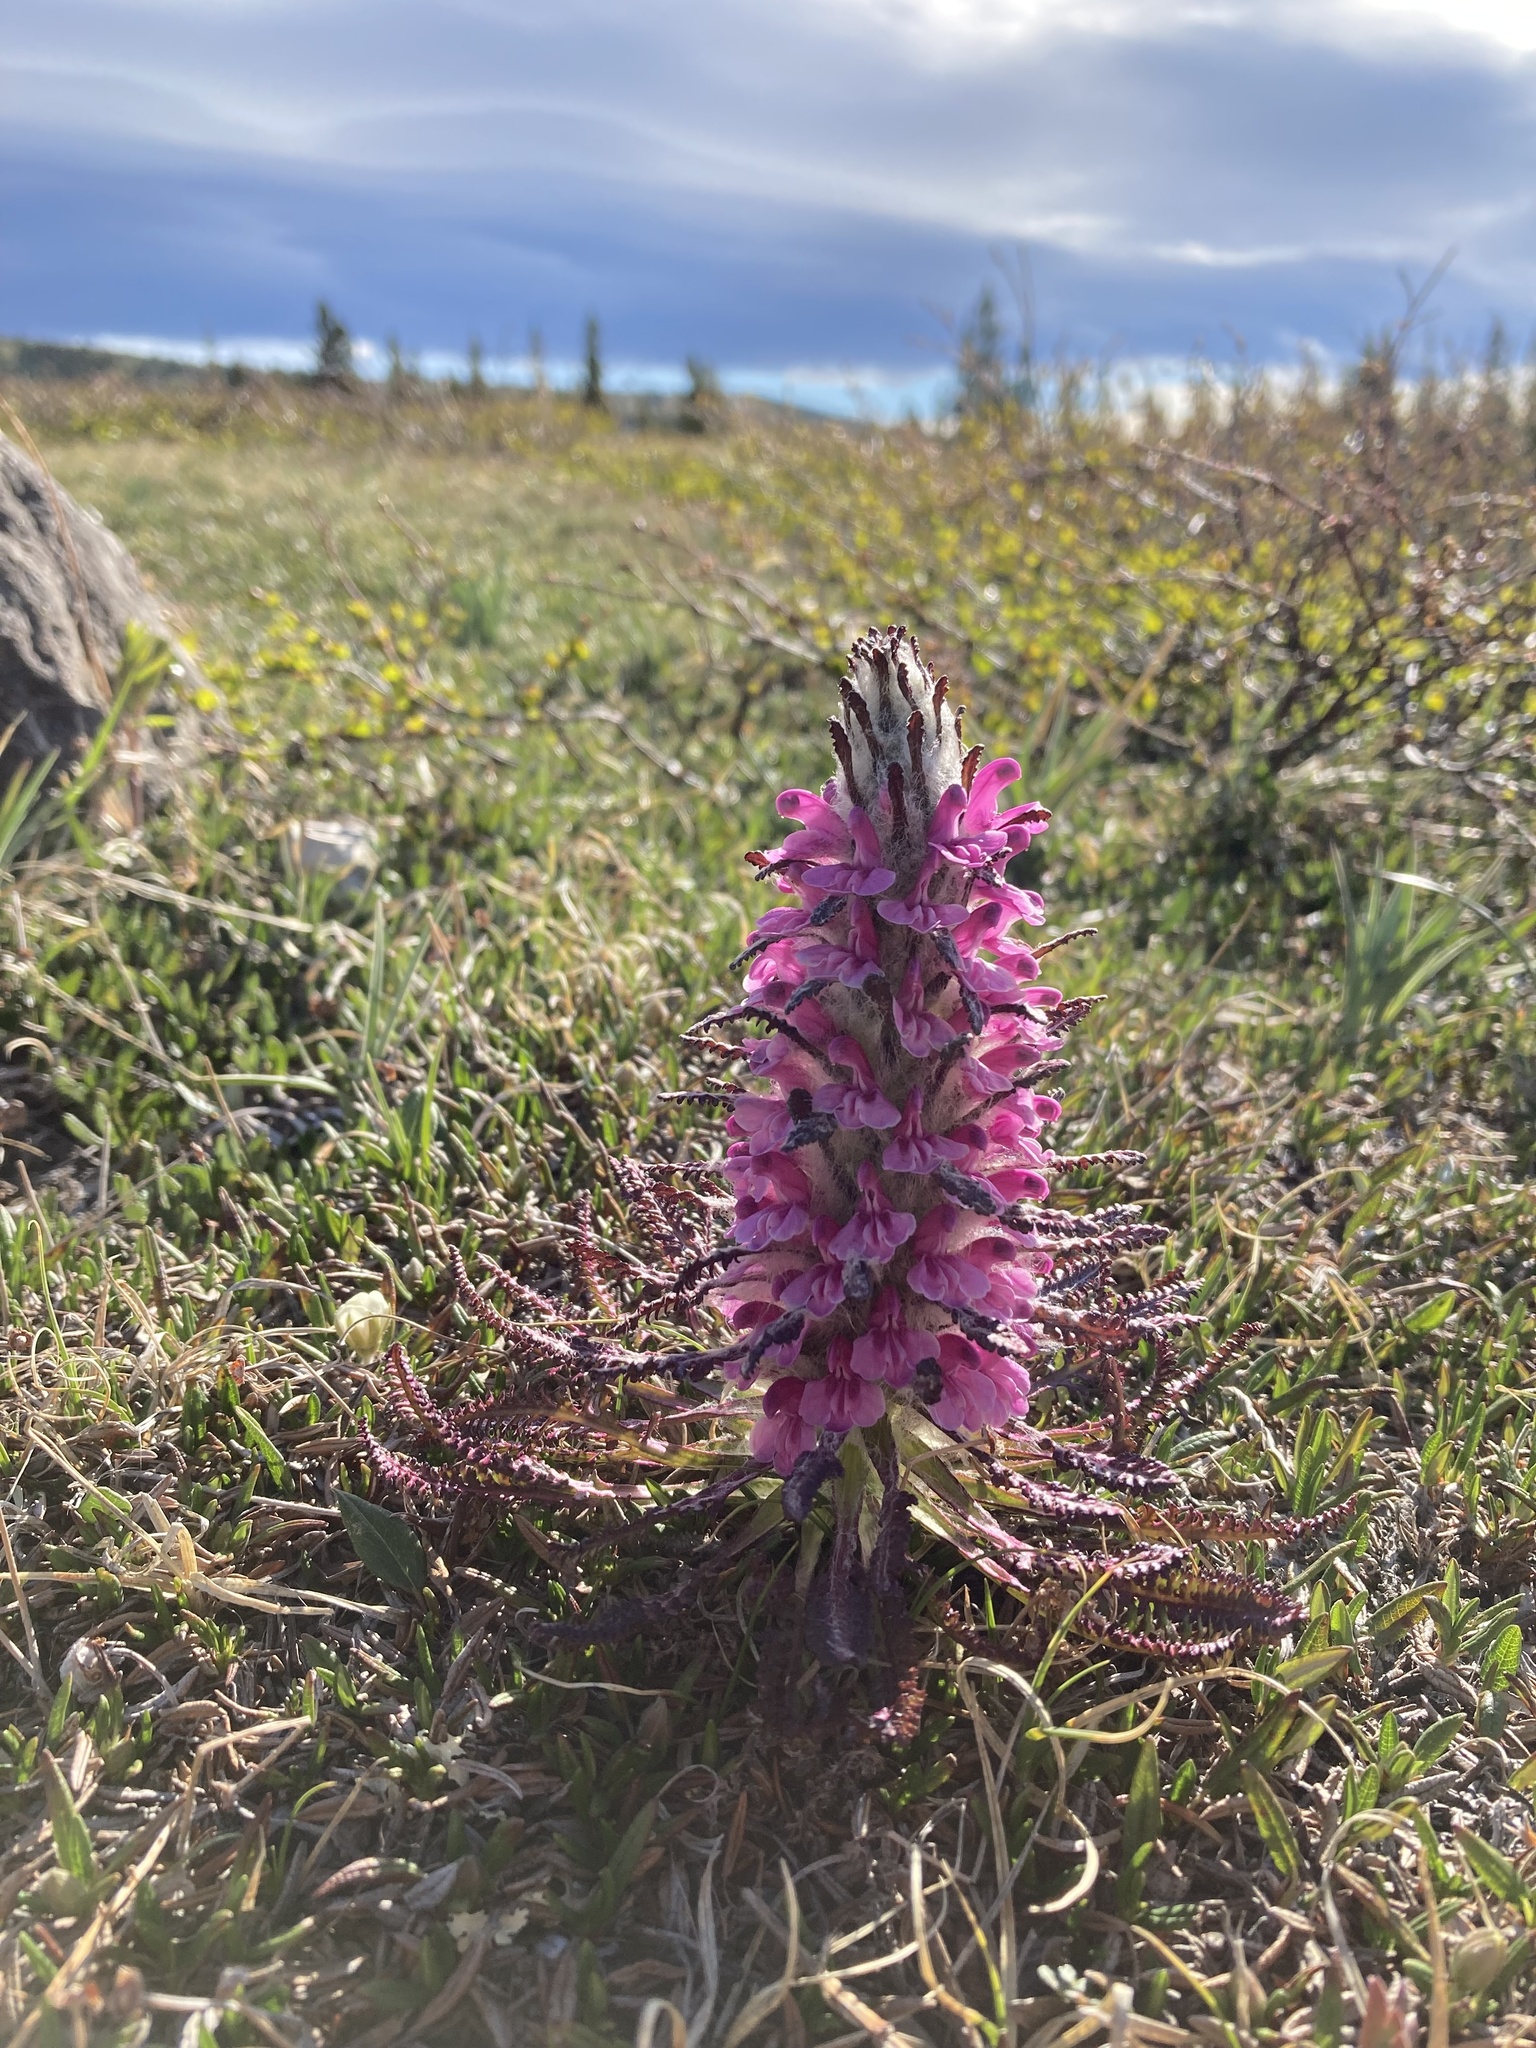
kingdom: Plantae
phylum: Tracheophyta
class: Magnoliopsida
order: Lamiales
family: Orobanchaceae
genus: Pedicularis
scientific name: Pedicularis lanata
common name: Woolly lousewort
